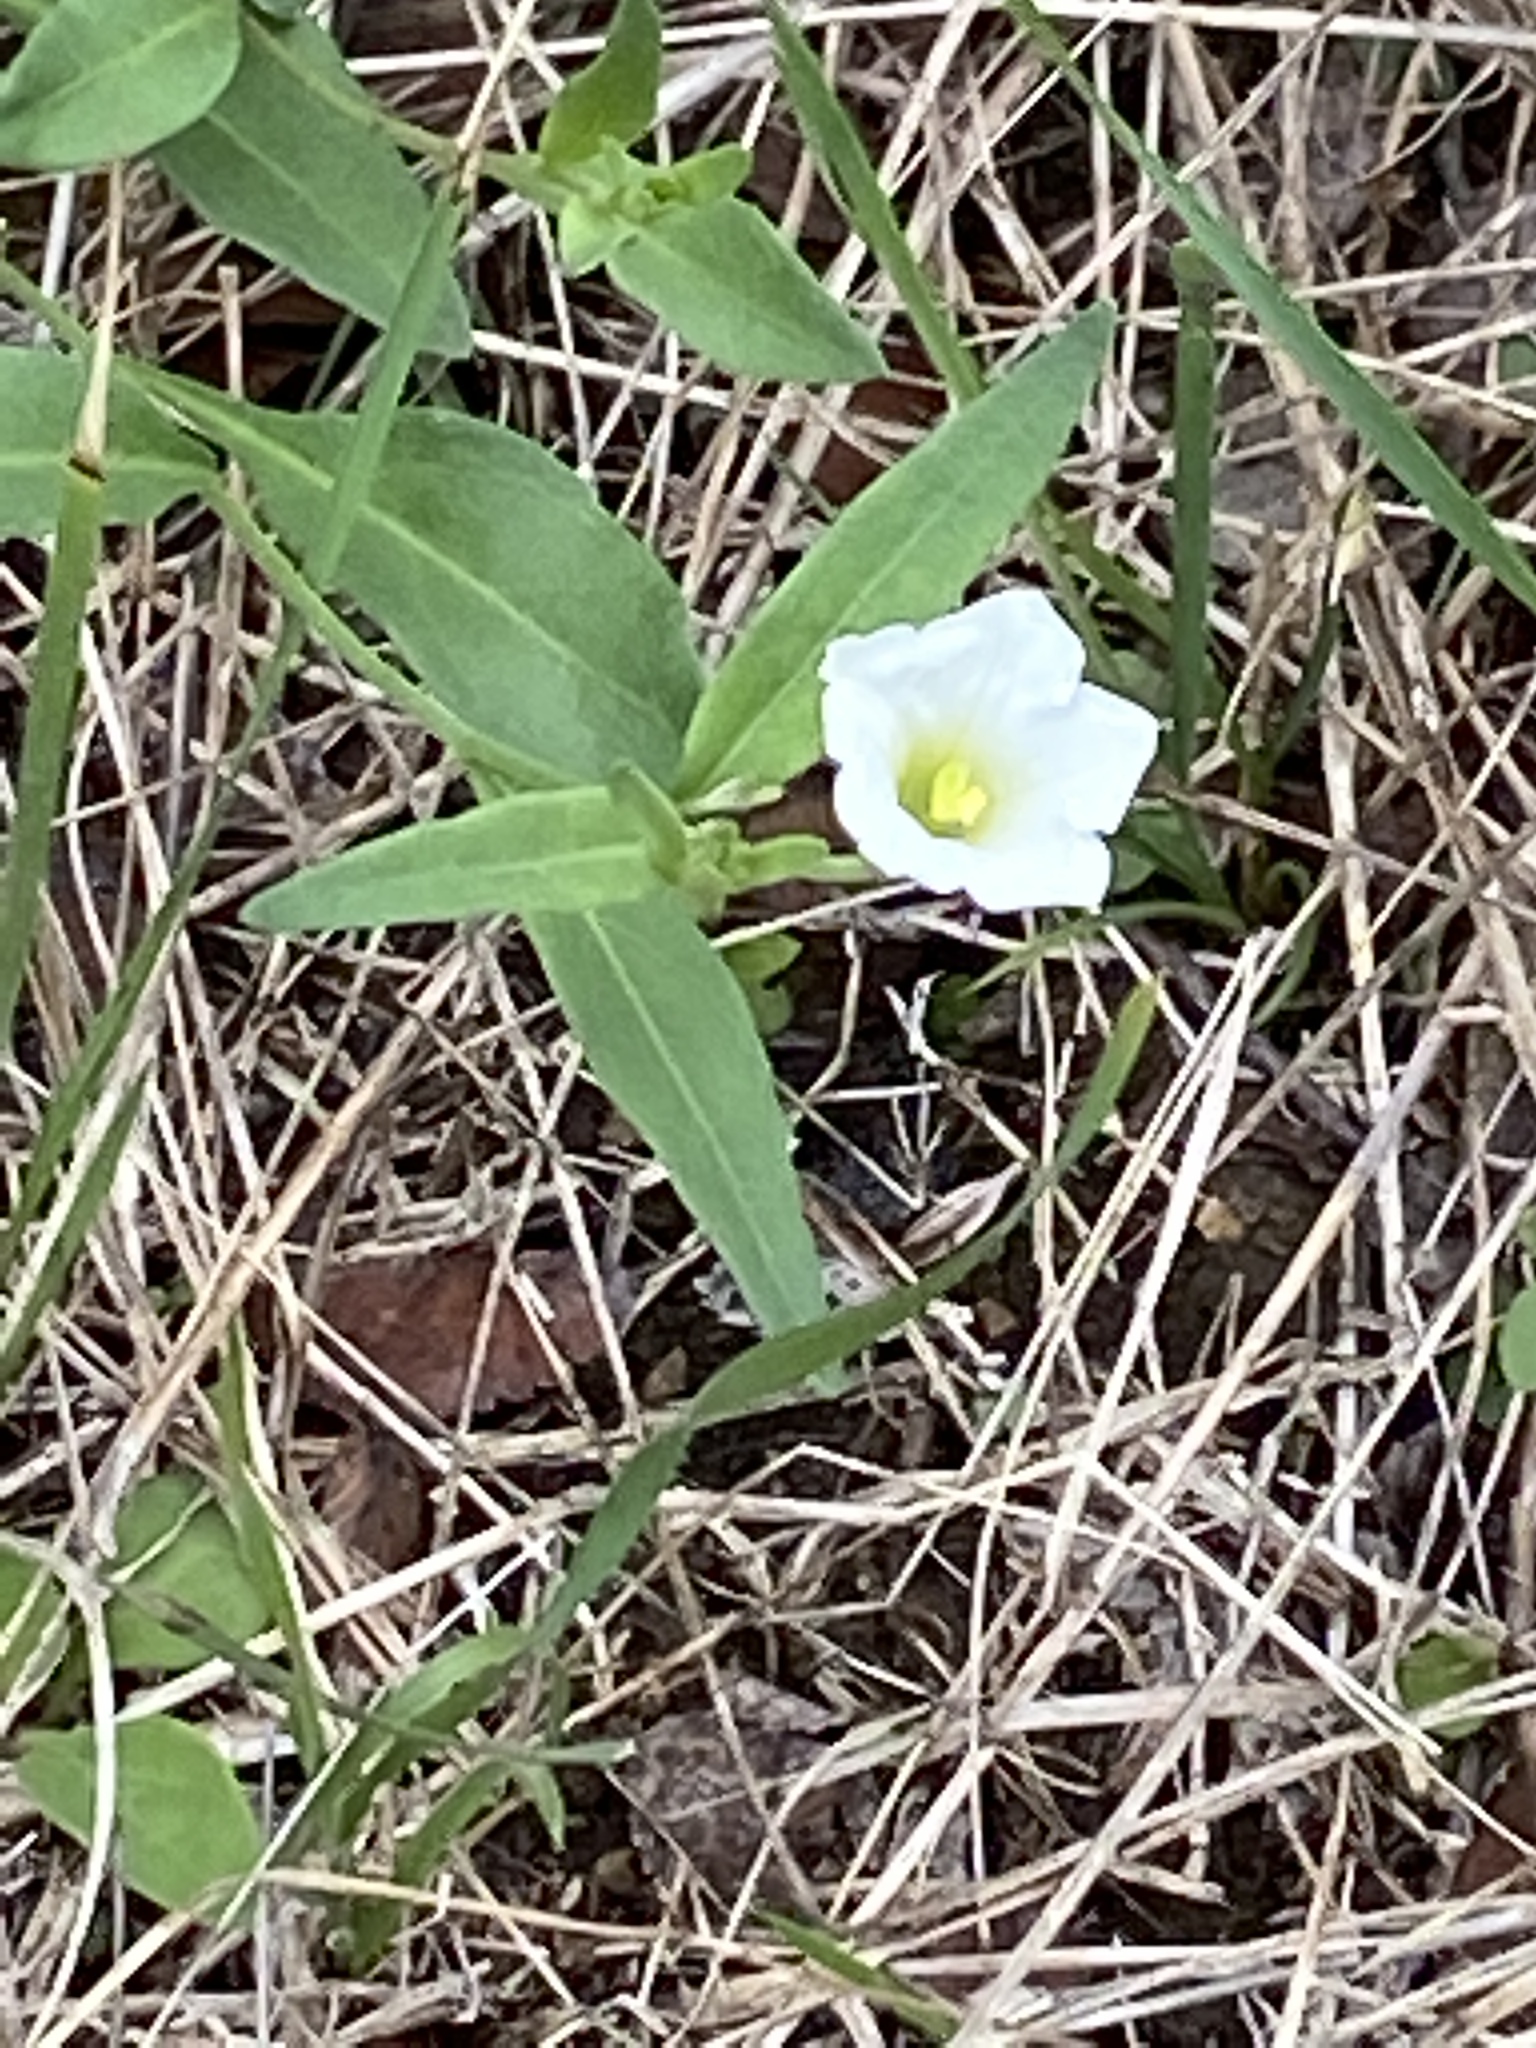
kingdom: Plantae
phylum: Tracheophyta
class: Magnoliopsida
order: Solanales
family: Solanaceae
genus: Salpiglossis
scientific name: Salpiglossis erecta
